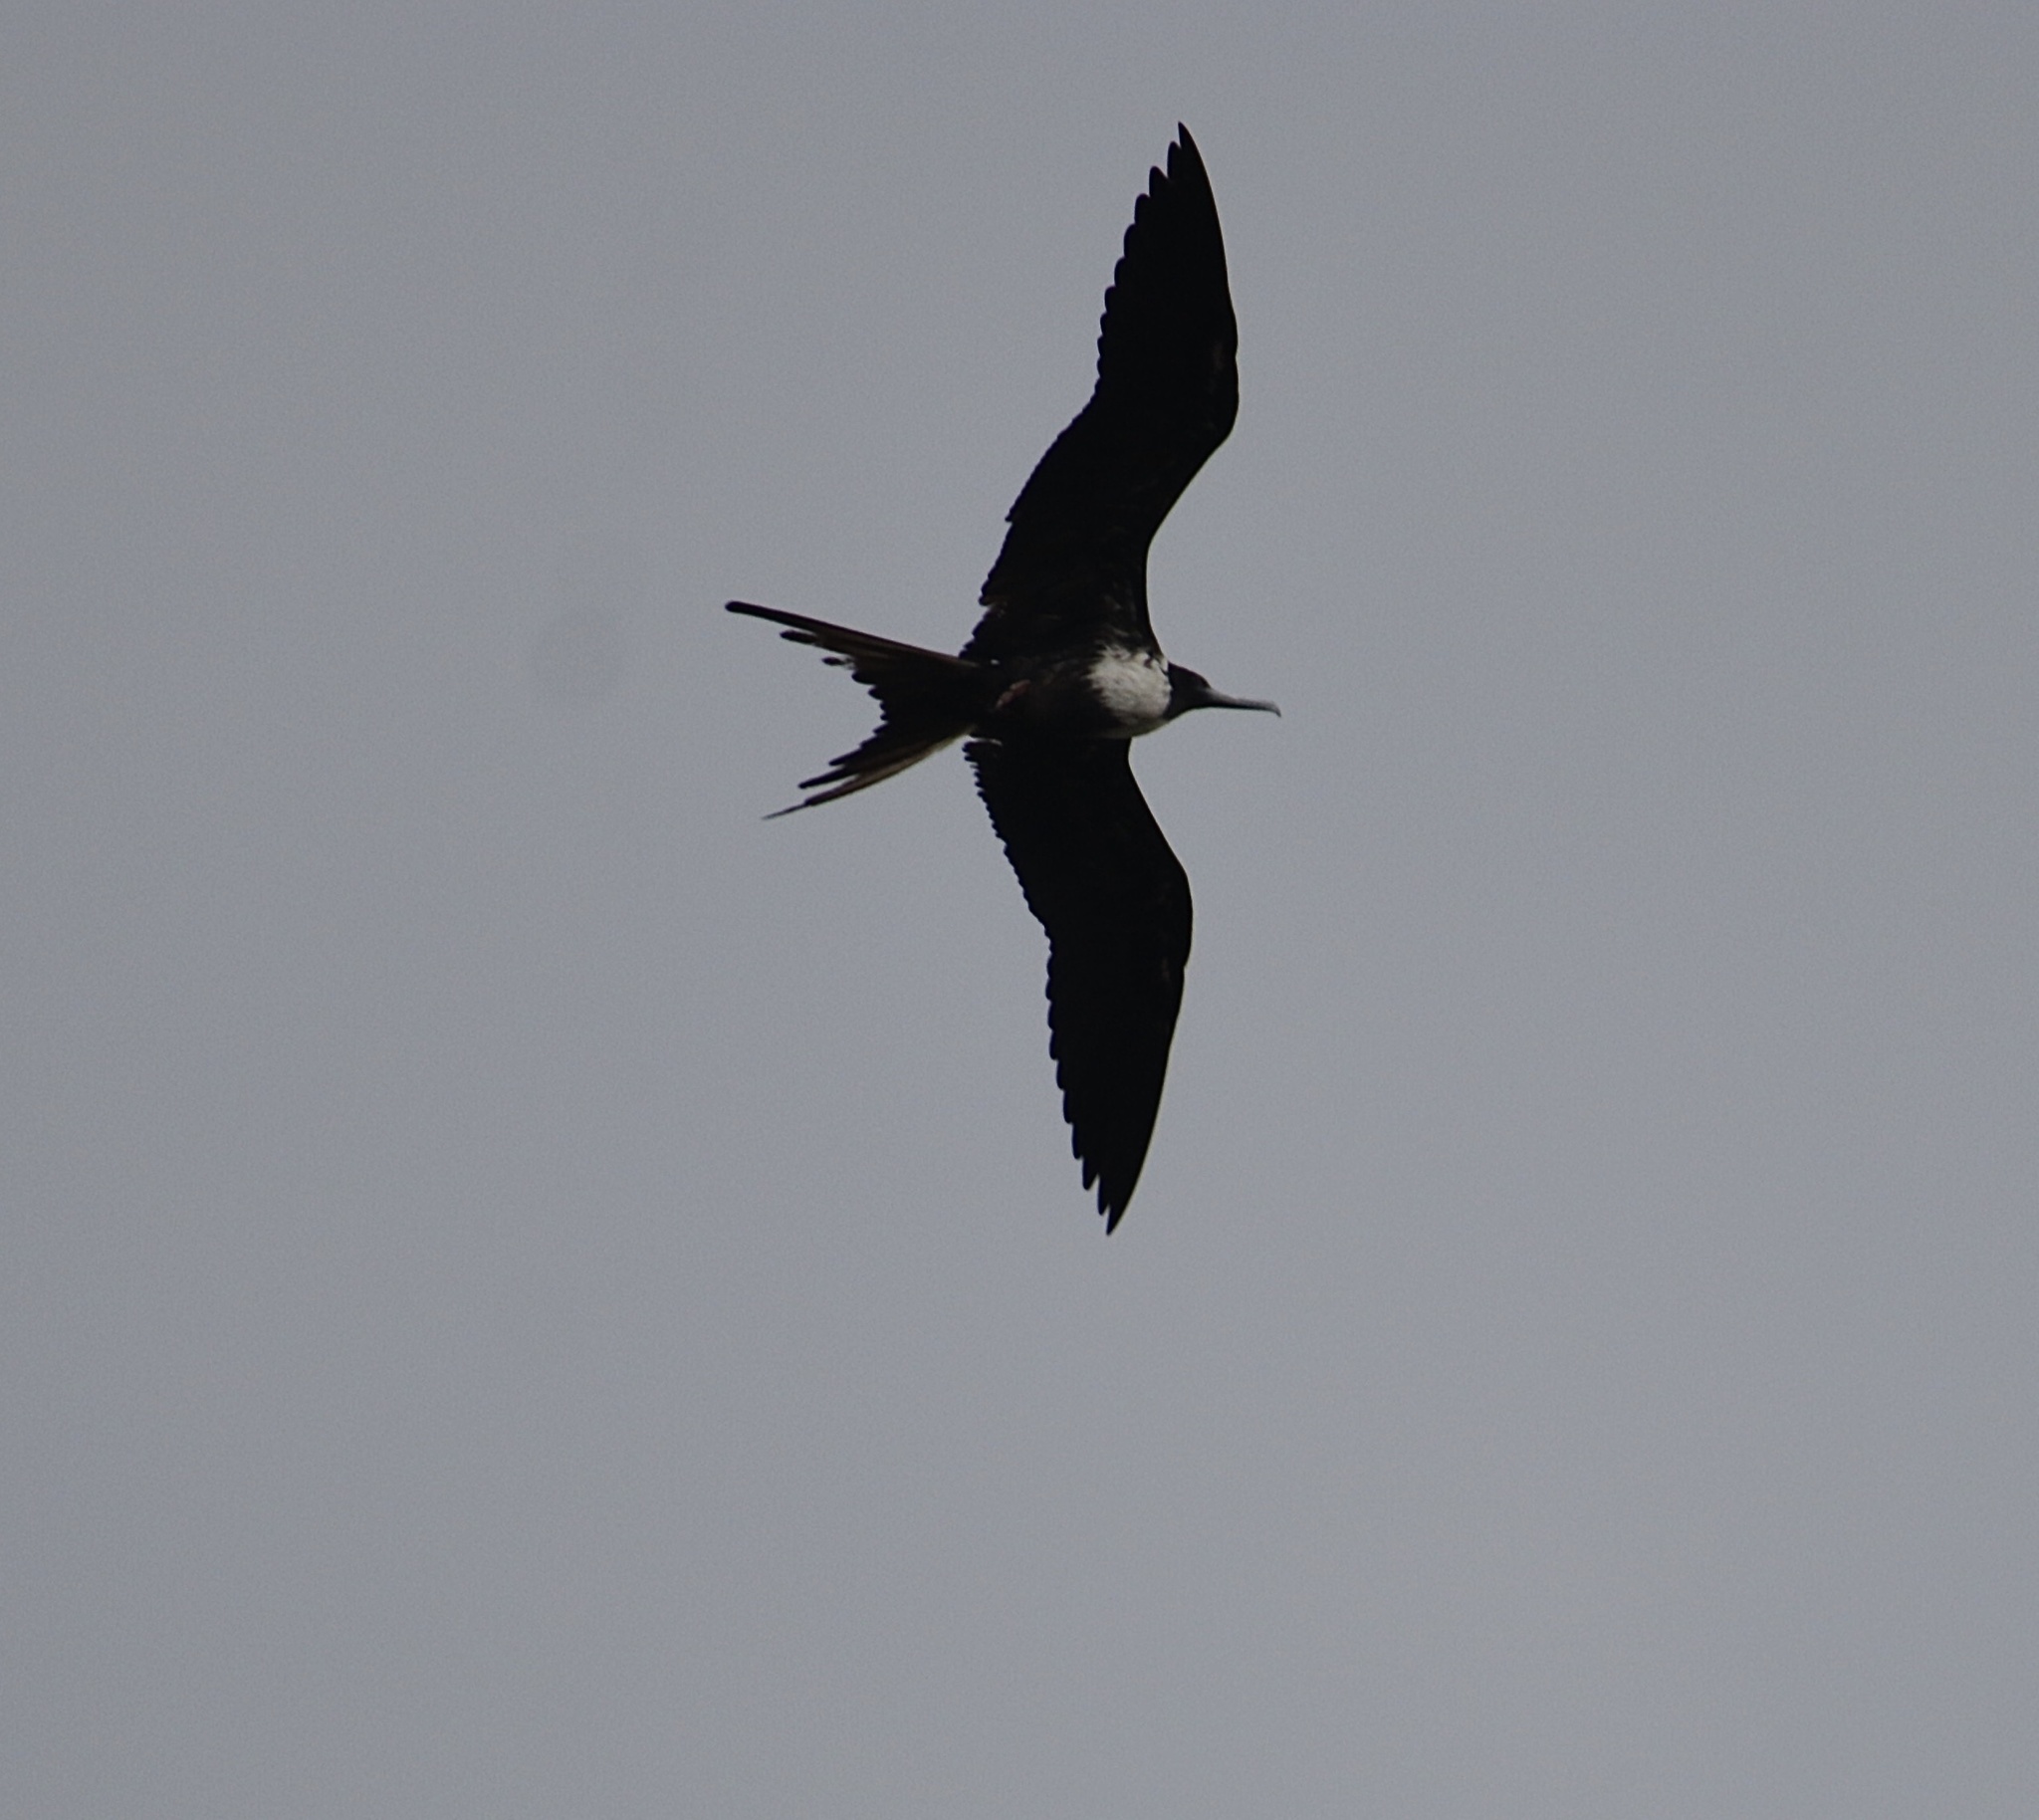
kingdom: Animalia
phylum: Chordata
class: Aves
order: Suliformes
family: Fregatidae
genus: Fregata
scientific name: Fregata magnificens
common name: Magnificent frigatebird
